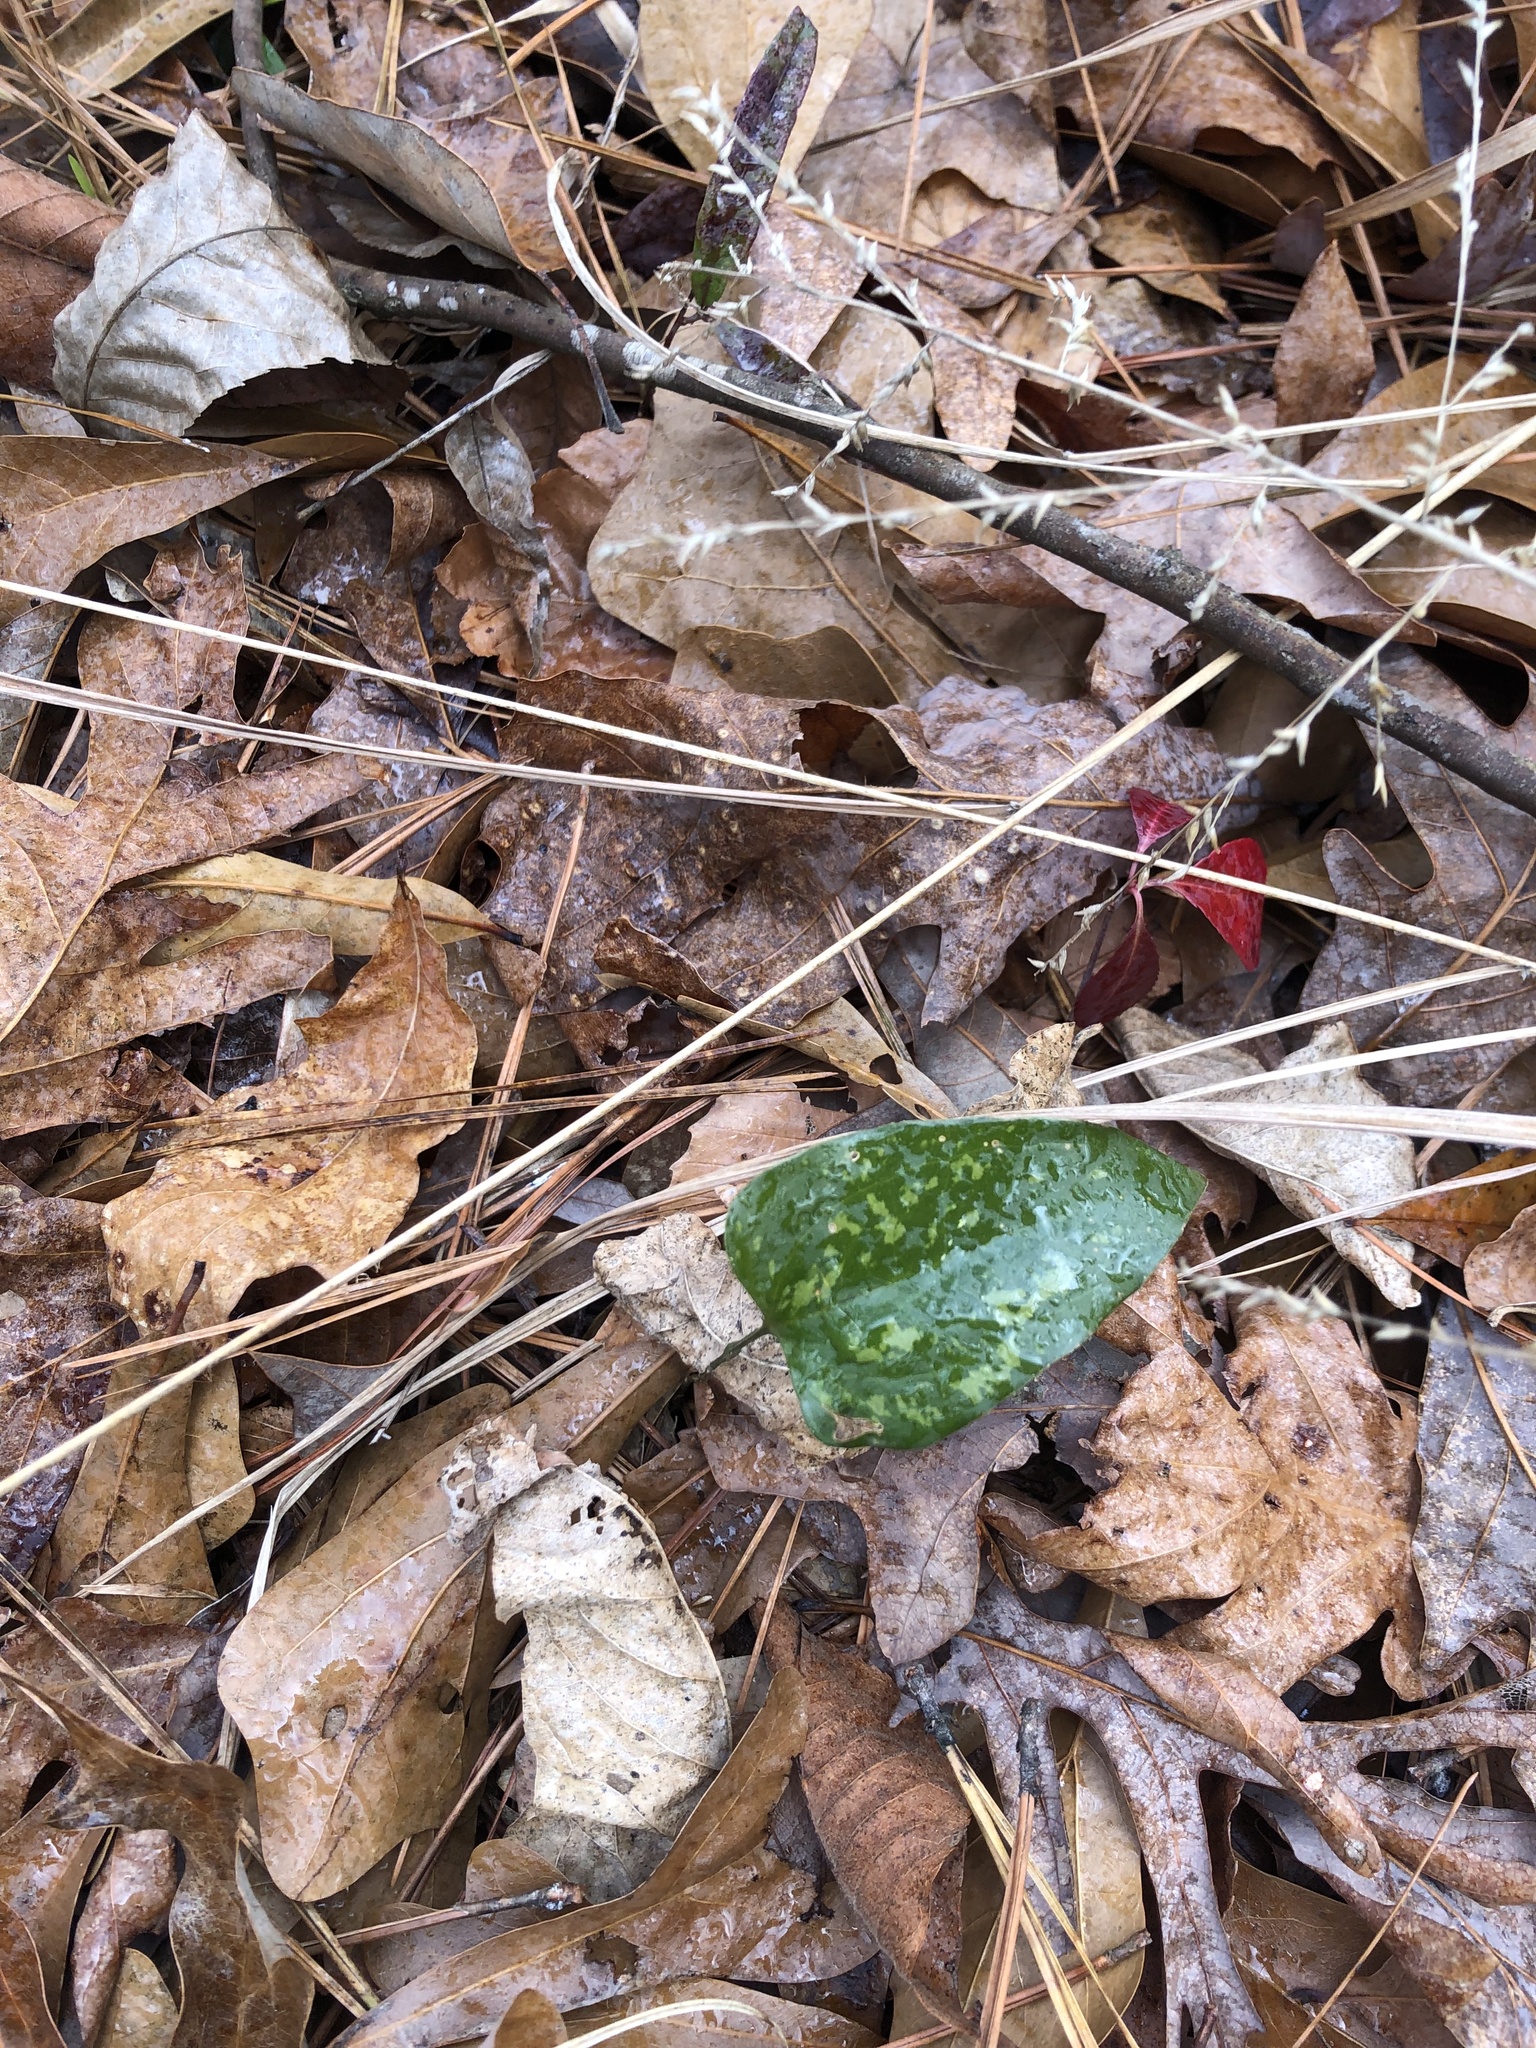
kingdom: Plantae
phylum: Tracheophyta
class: Liliopsida
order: Liliales
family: Smilacaceae
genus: Smilax
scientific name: Smilax glauca
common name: Cat greenbrier
